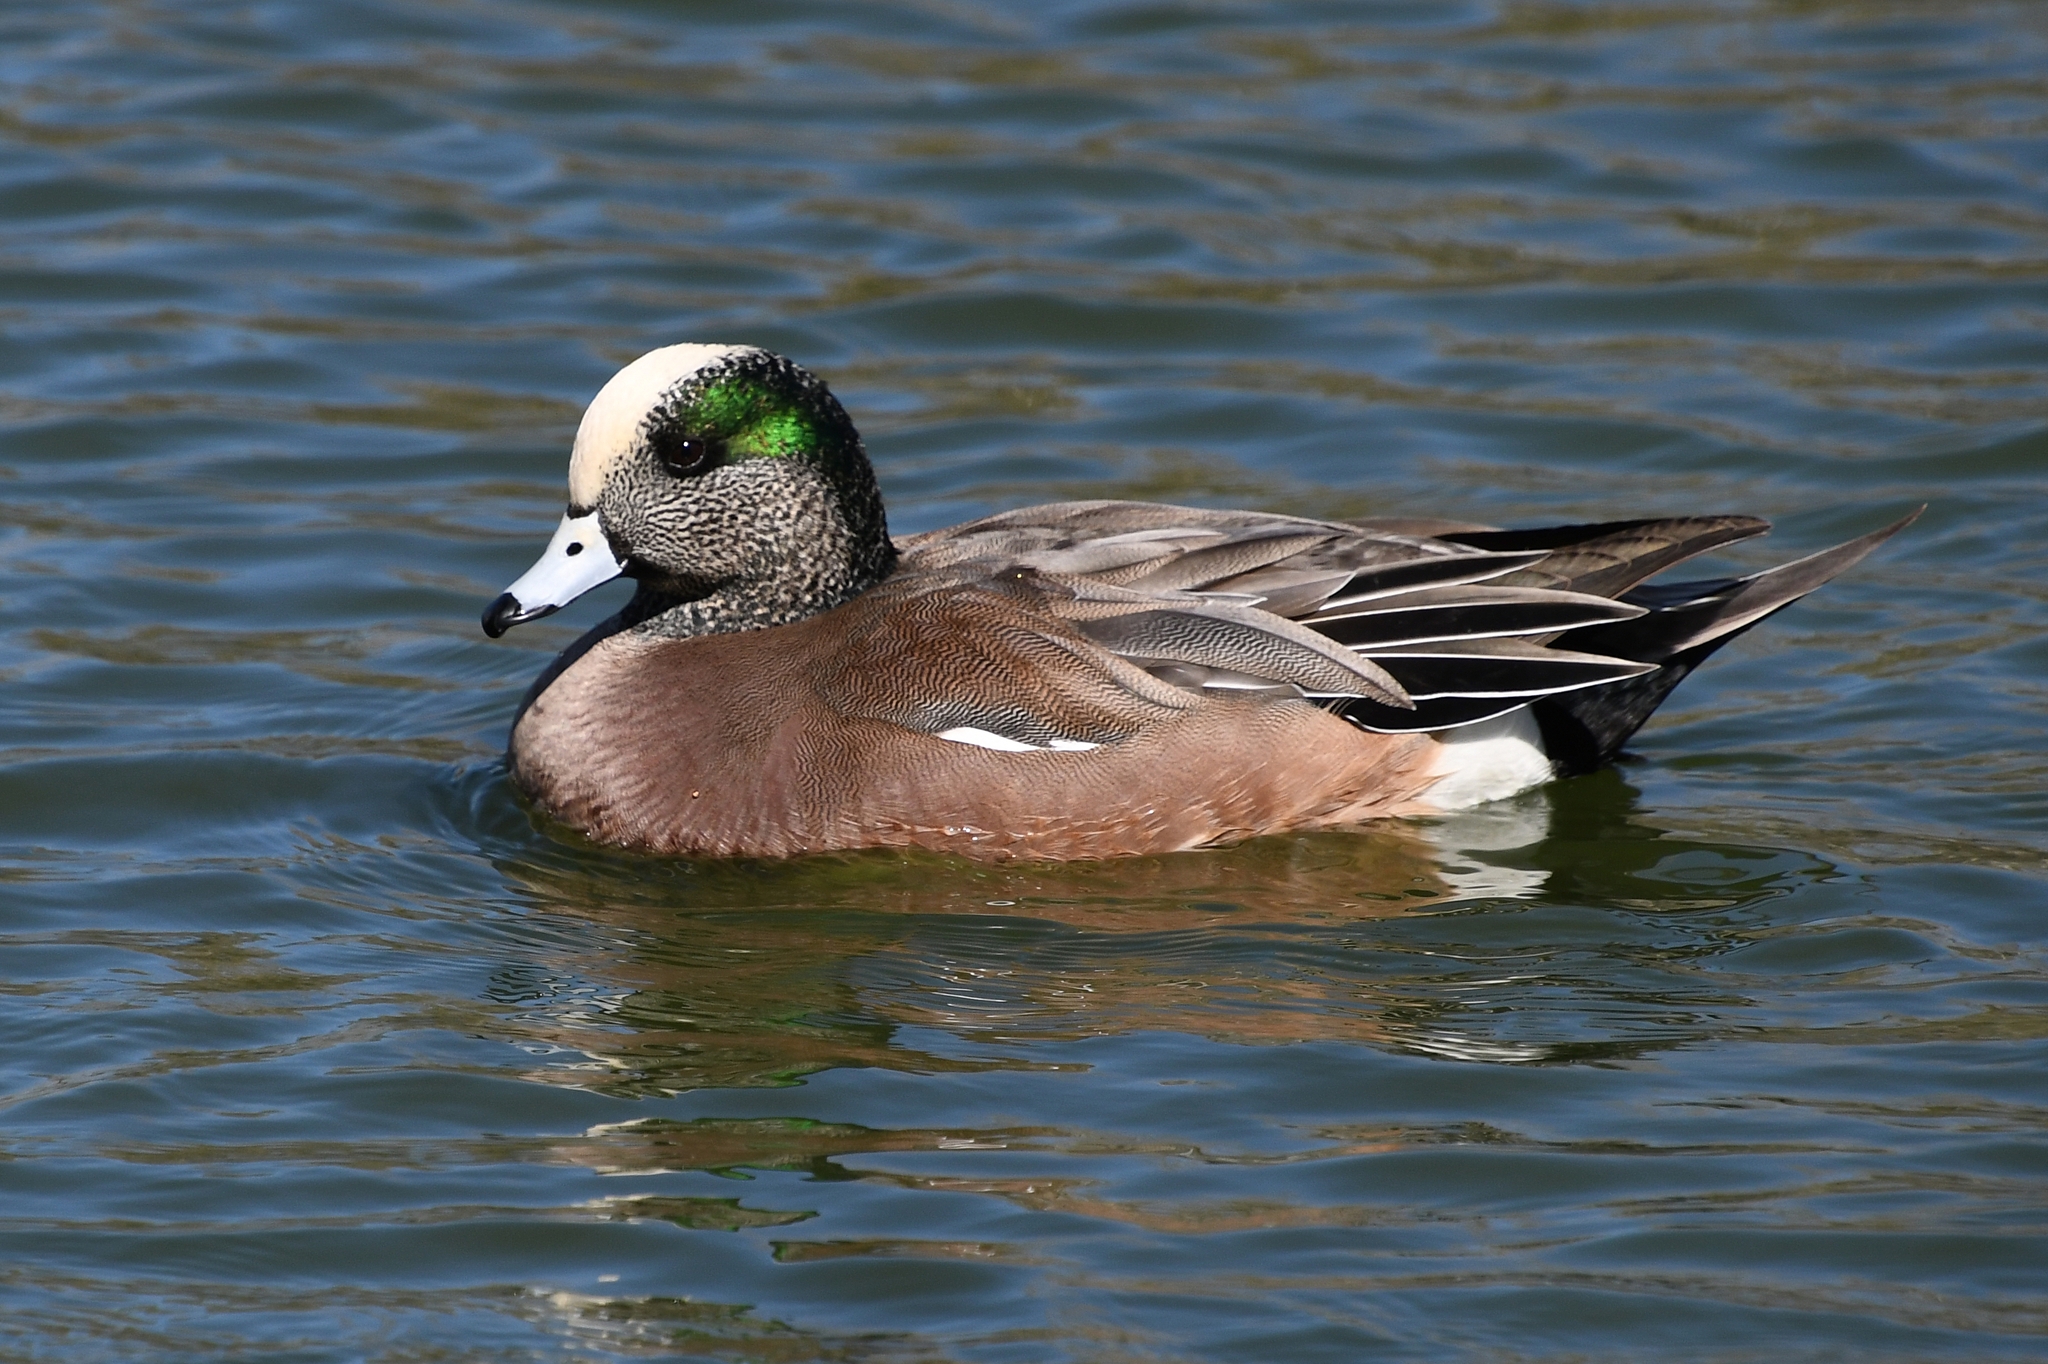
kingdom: Animalia
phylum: Chordata
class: Aves
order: Anseriformes
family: Anatidae
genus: Mareca
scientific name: Mareca americana
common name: American wigeon
